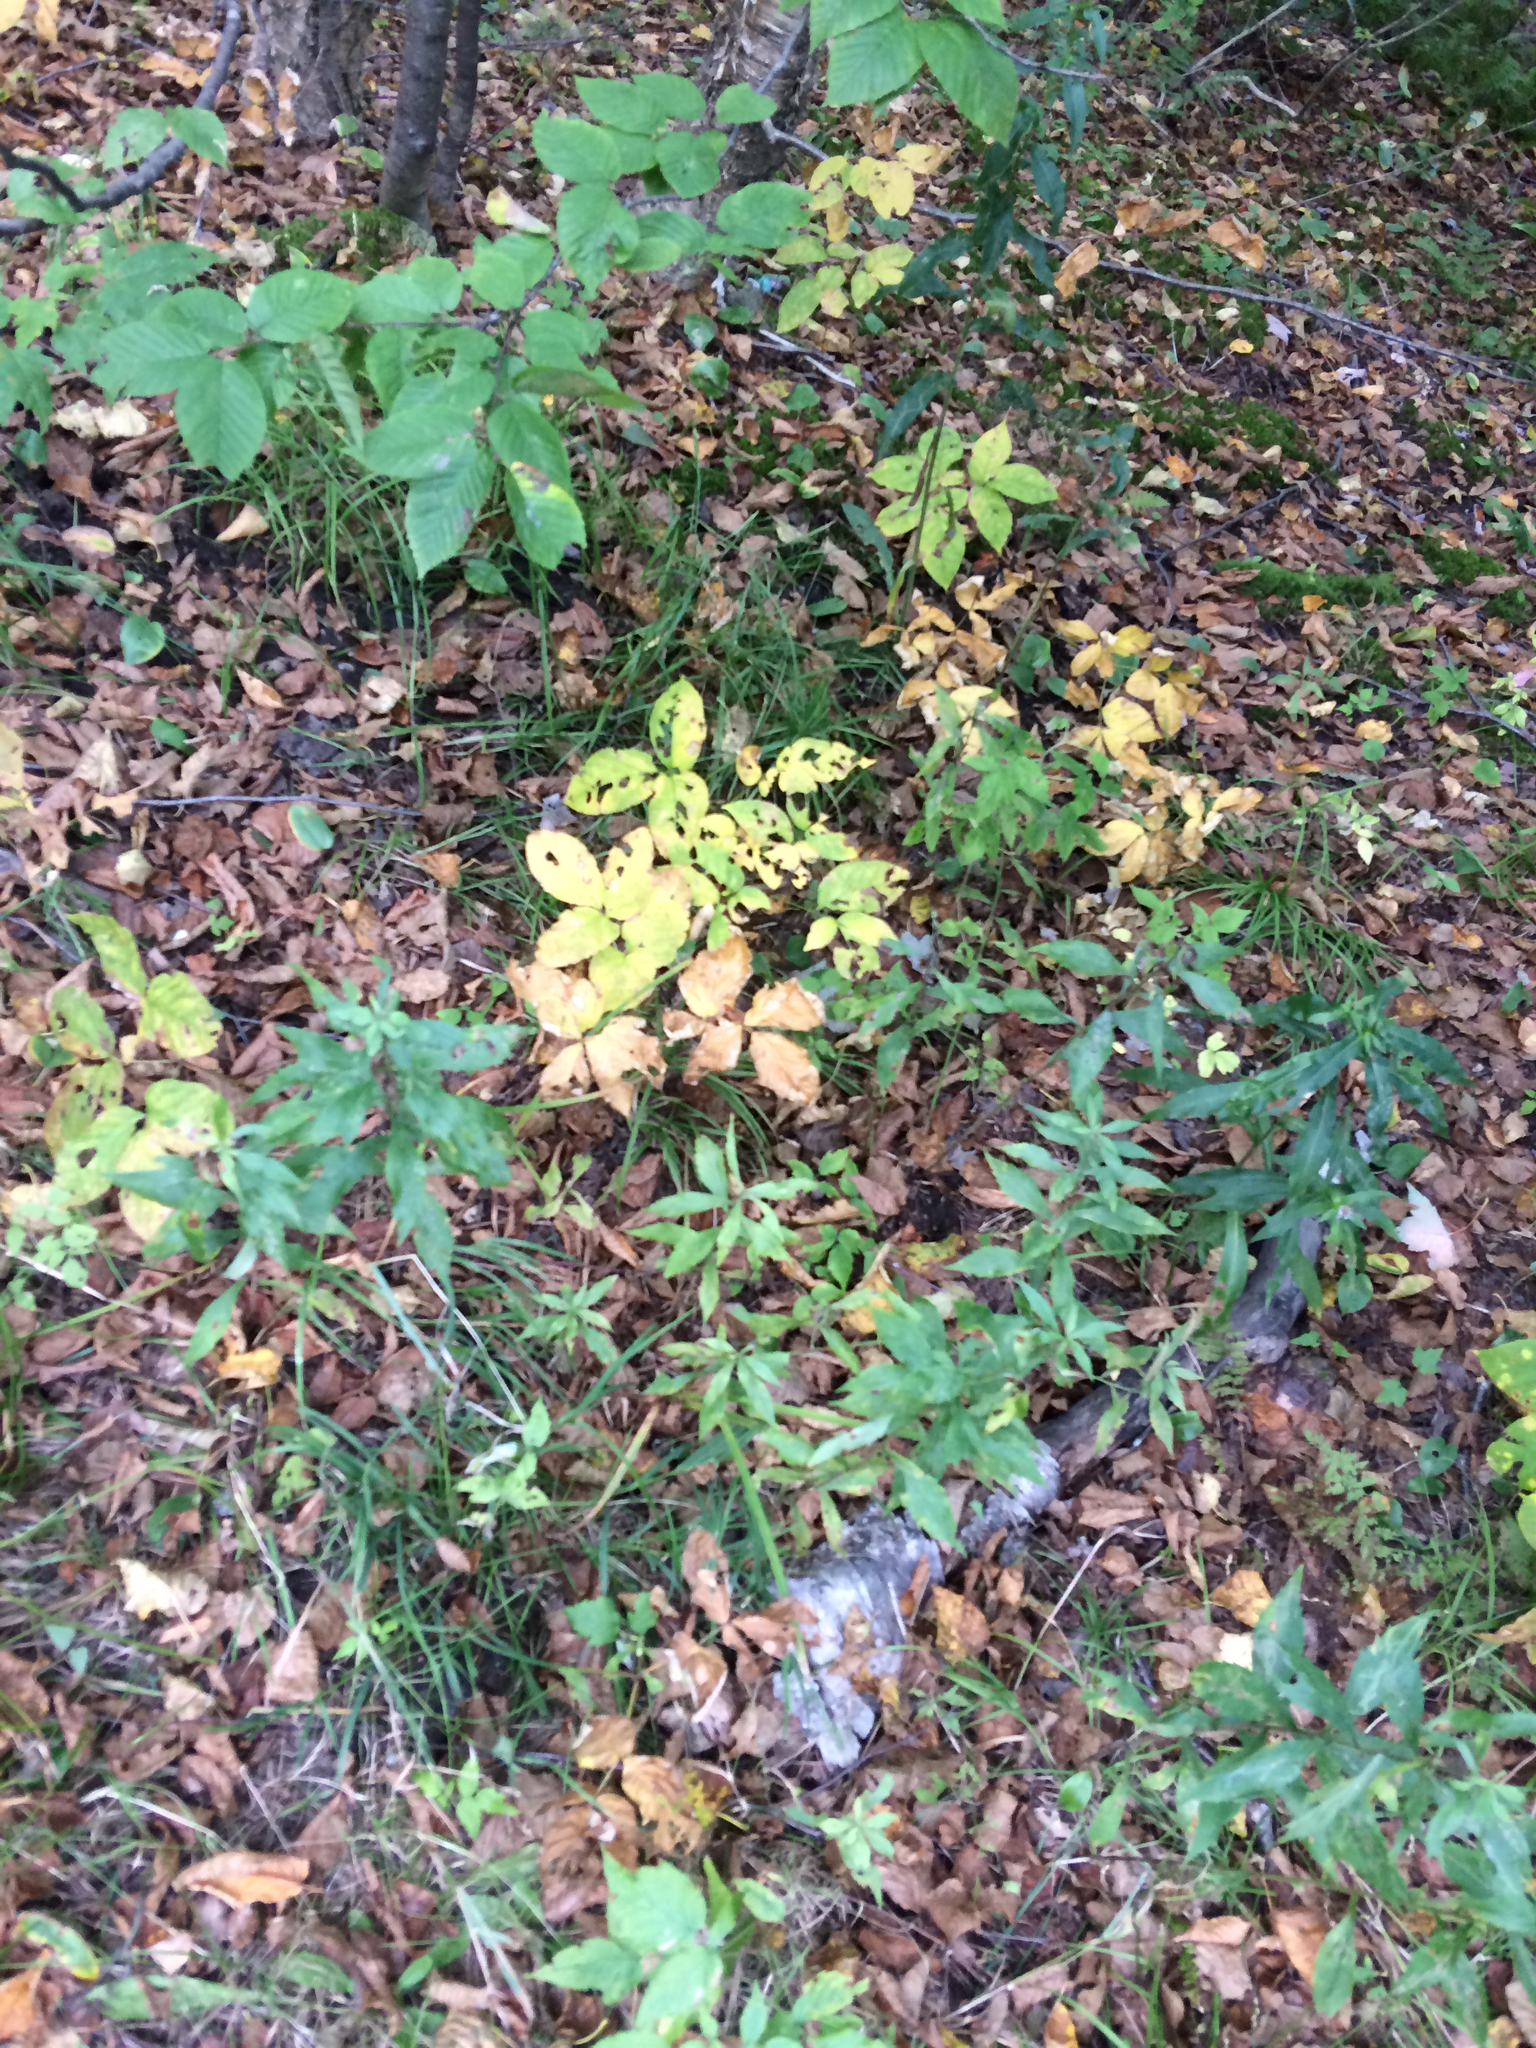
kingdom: Plantae
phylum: Tracheophyta
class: Magnoliopsida
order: Apiales
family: Araliaceae
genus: Aralia
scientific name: Aralia nudicaulis
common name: Wild sarsaparilla
